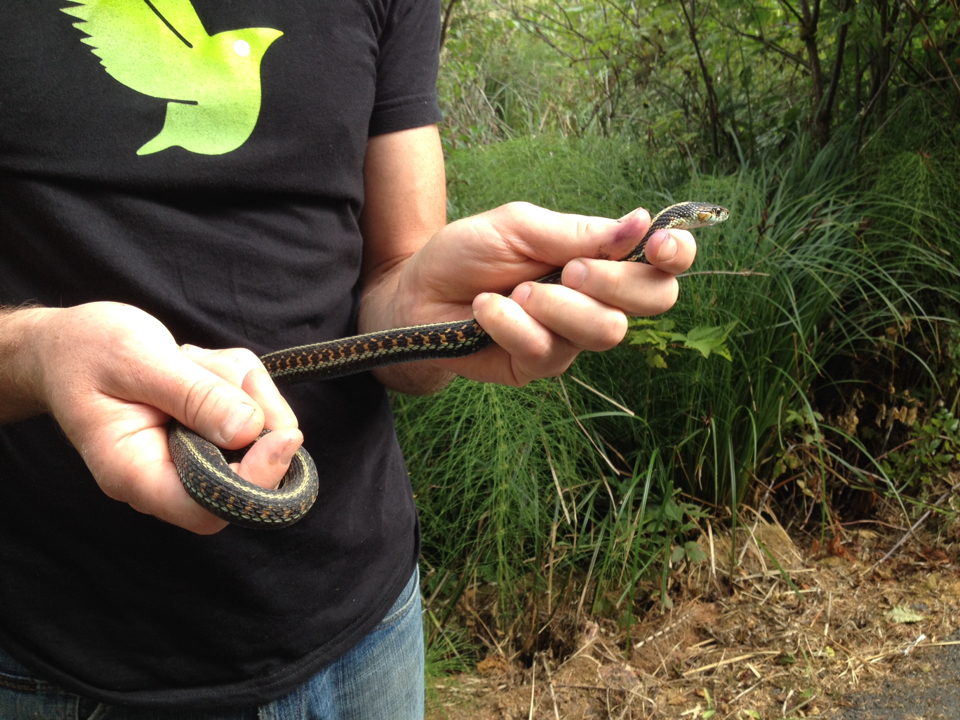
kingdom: Animalia
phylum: Chordata
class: Squamata
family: Colubridae
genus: Thamnophis
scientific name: Thamnophis sirtalis
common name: Common garter snake
